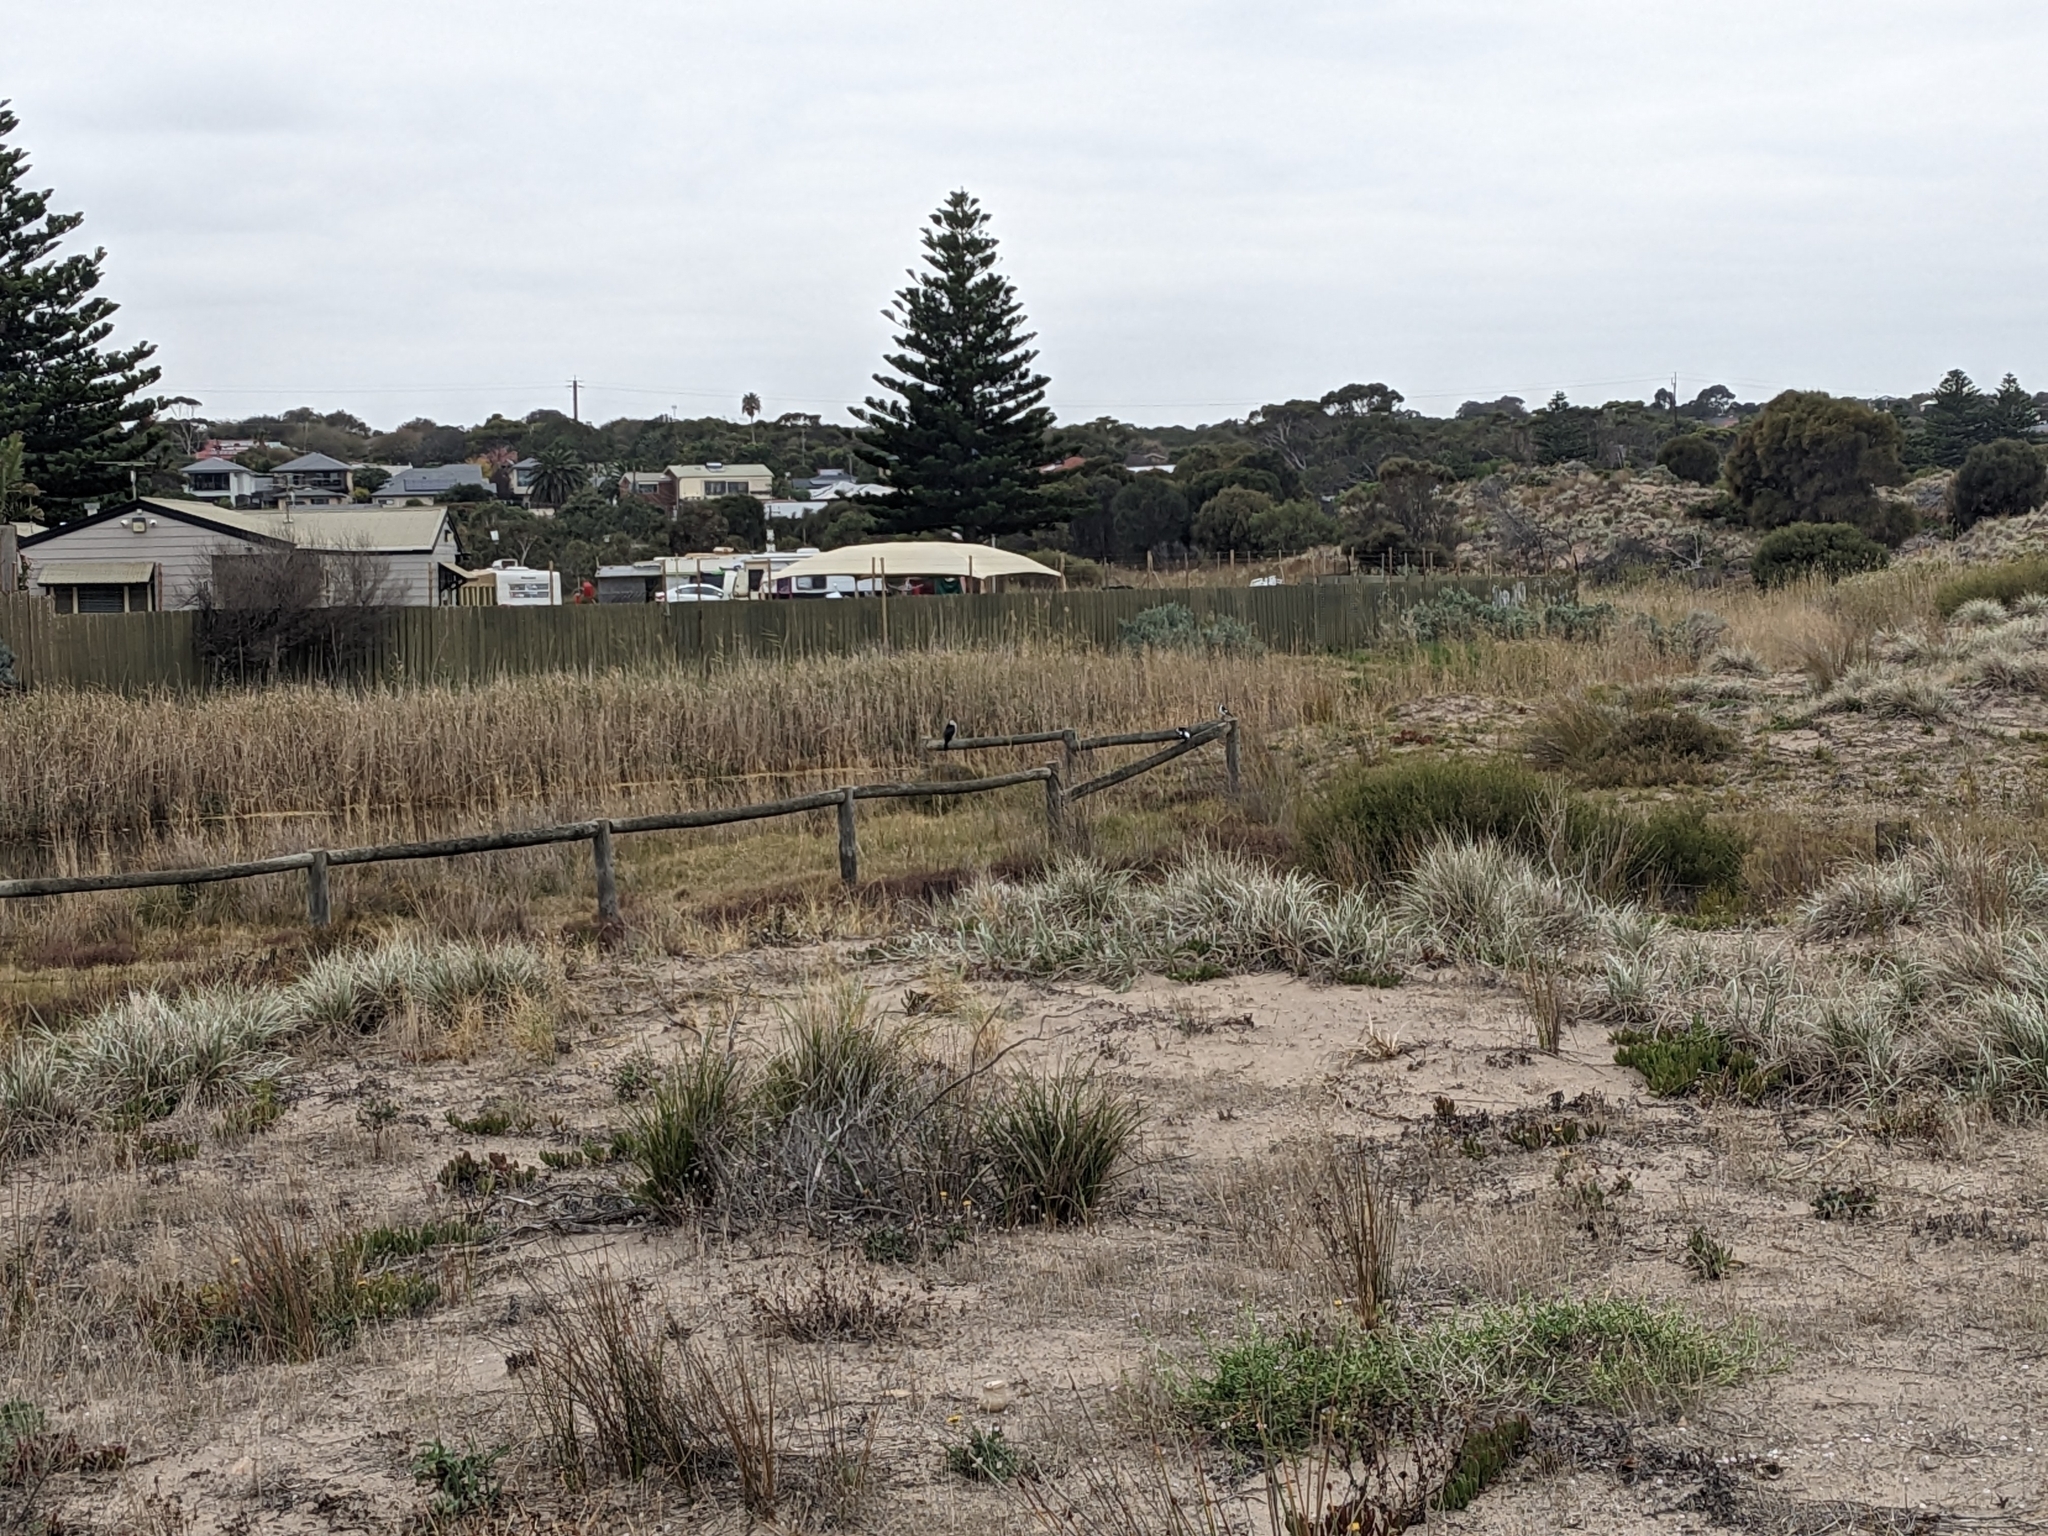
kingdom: Animalia
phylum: Chordata
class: Aves
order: Suliformes
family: Phalacrocoracidae
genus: Microcarbo
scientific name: Microcarbo melanoleucos
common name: Little pied cormorant
